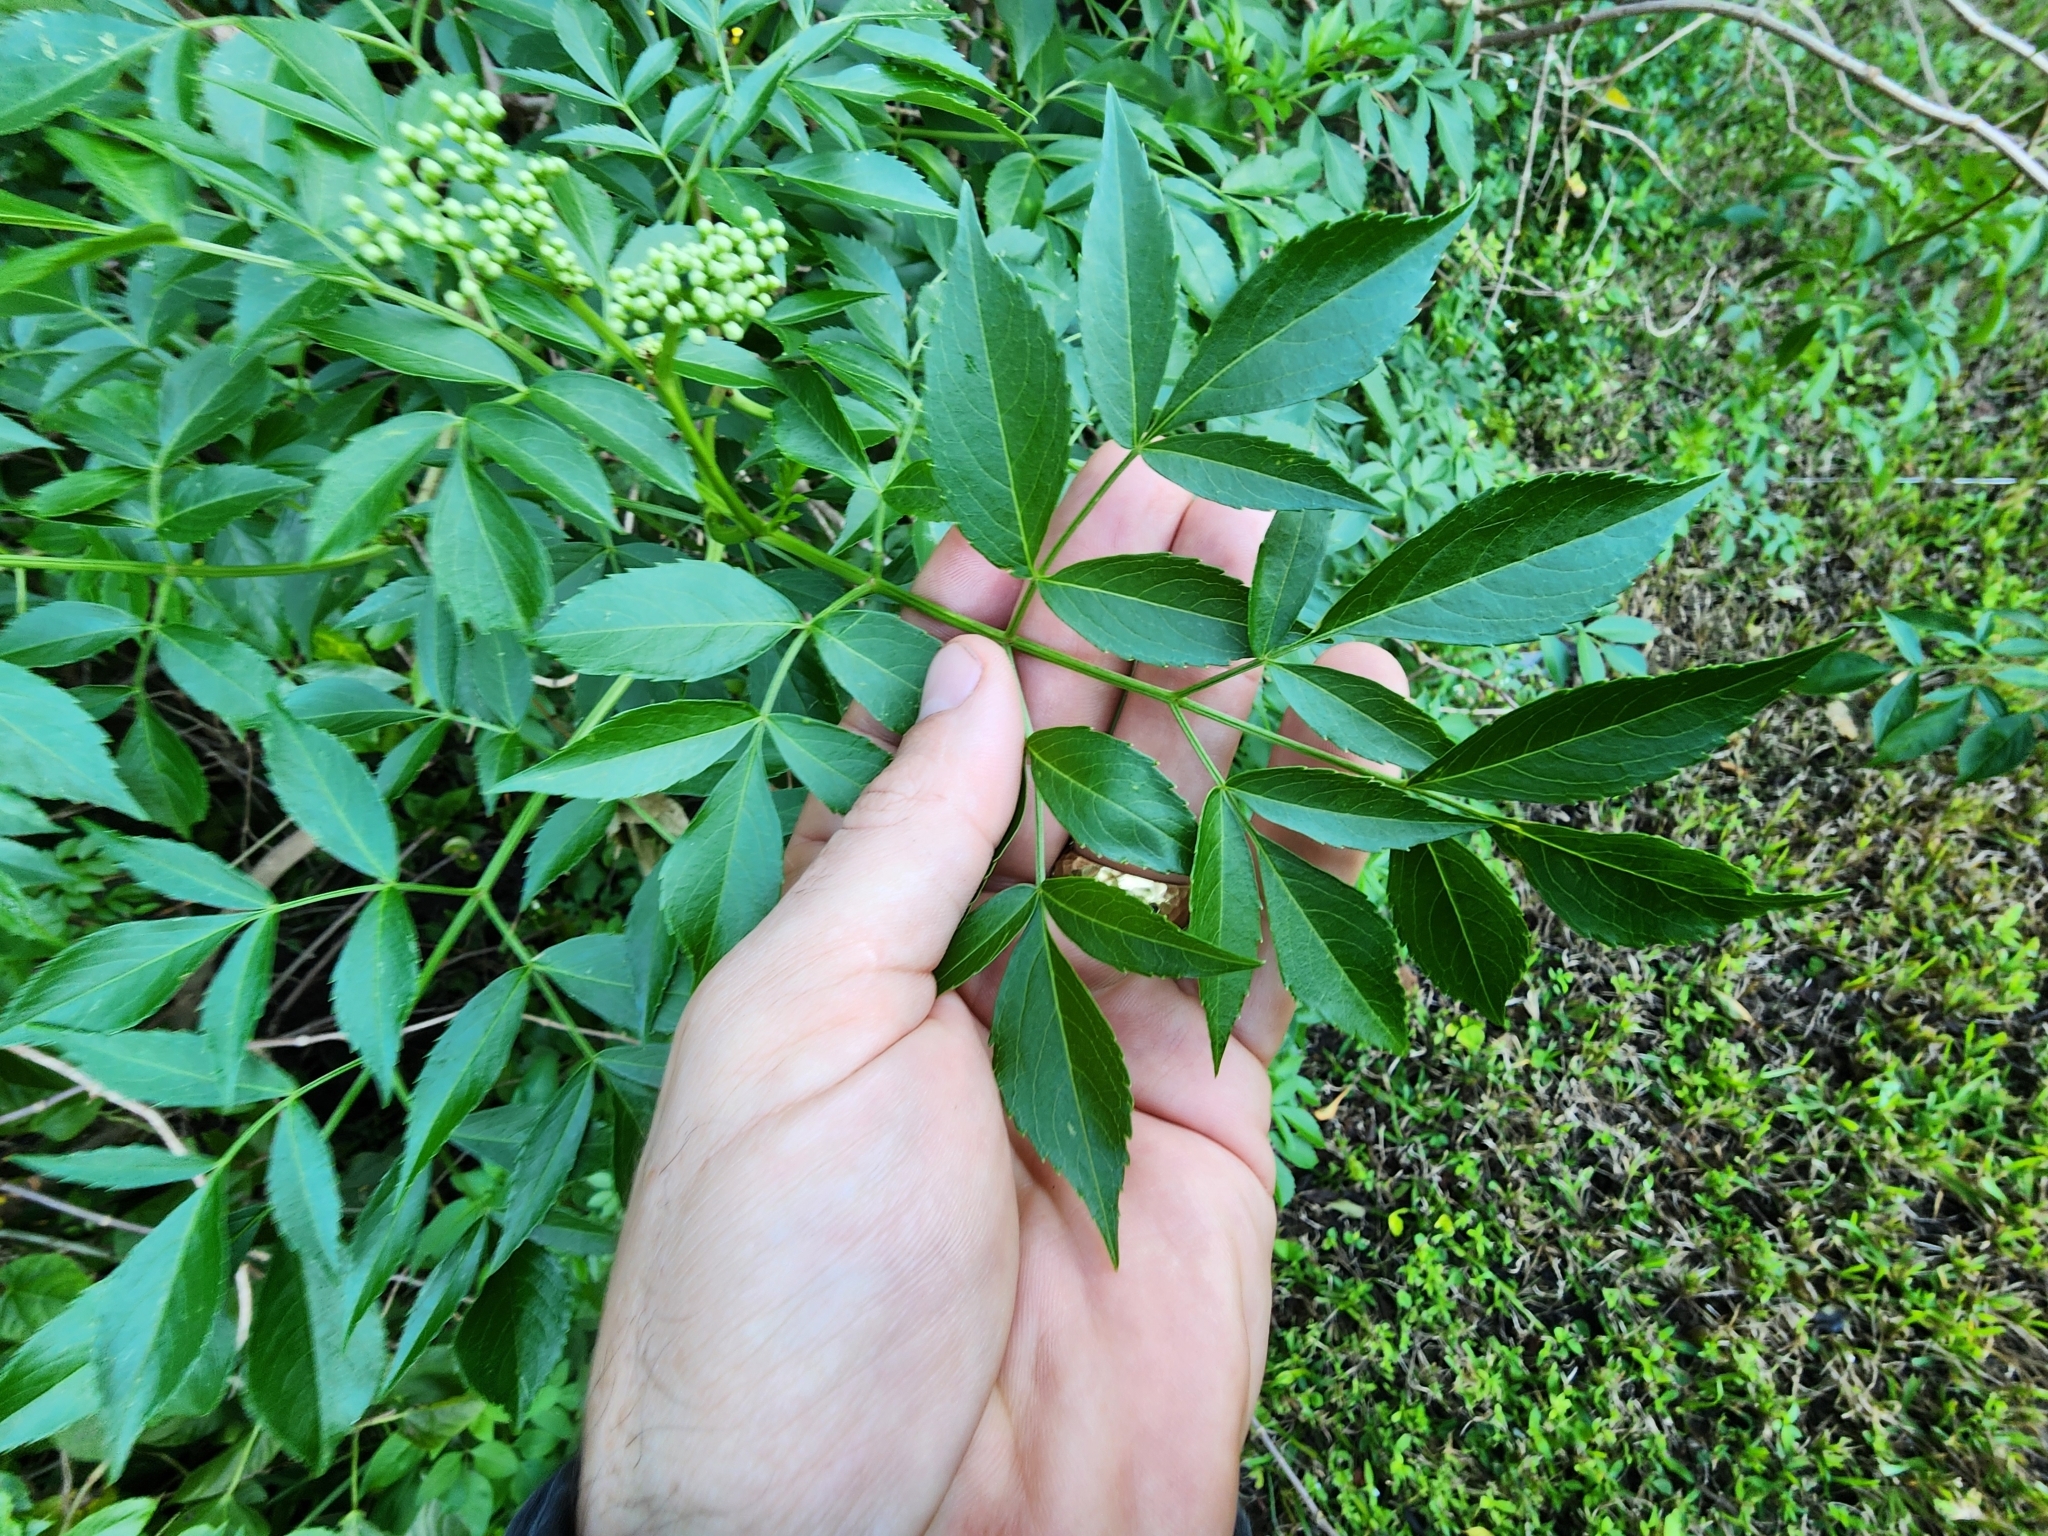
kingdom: Plantae
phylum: Tracheophyta
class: Magnoliopsida
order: Dipsacales
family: Viburnaceae
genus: Sambucus
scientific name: Sambucus canadensis
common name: American elder
